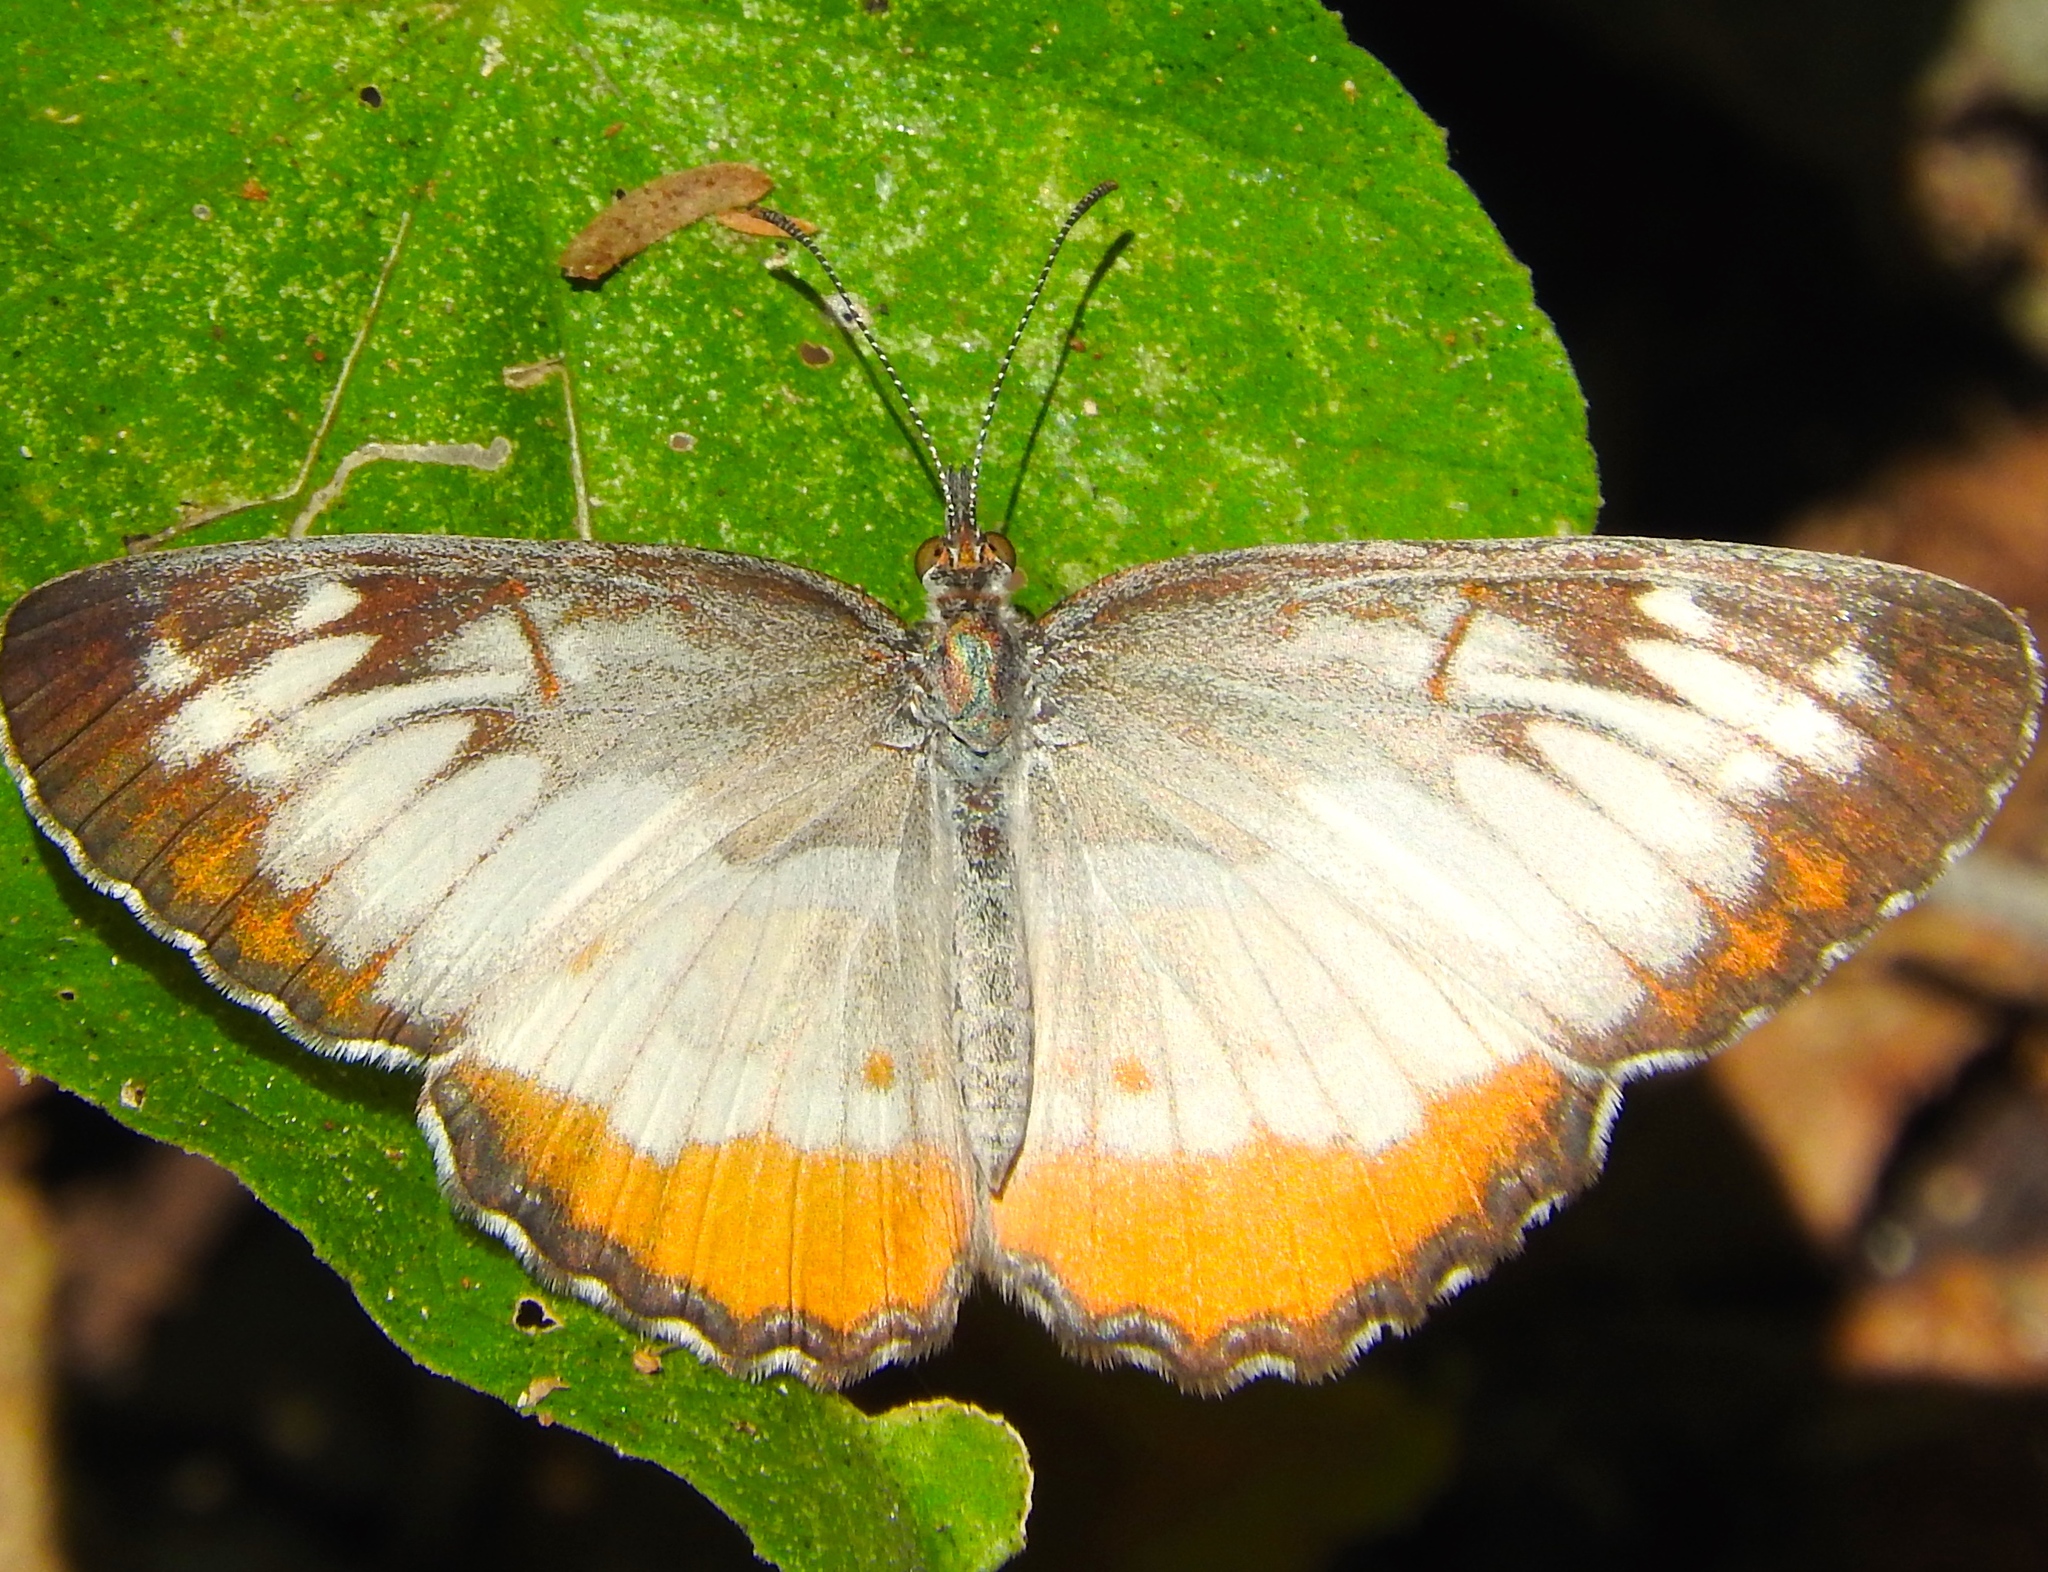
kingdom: Animalia
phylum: Arthropoda
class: Insecta
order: Lepidoptera
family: Nymphalidae
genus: Mestra
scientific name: Mestra amymone
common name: Common mestra
